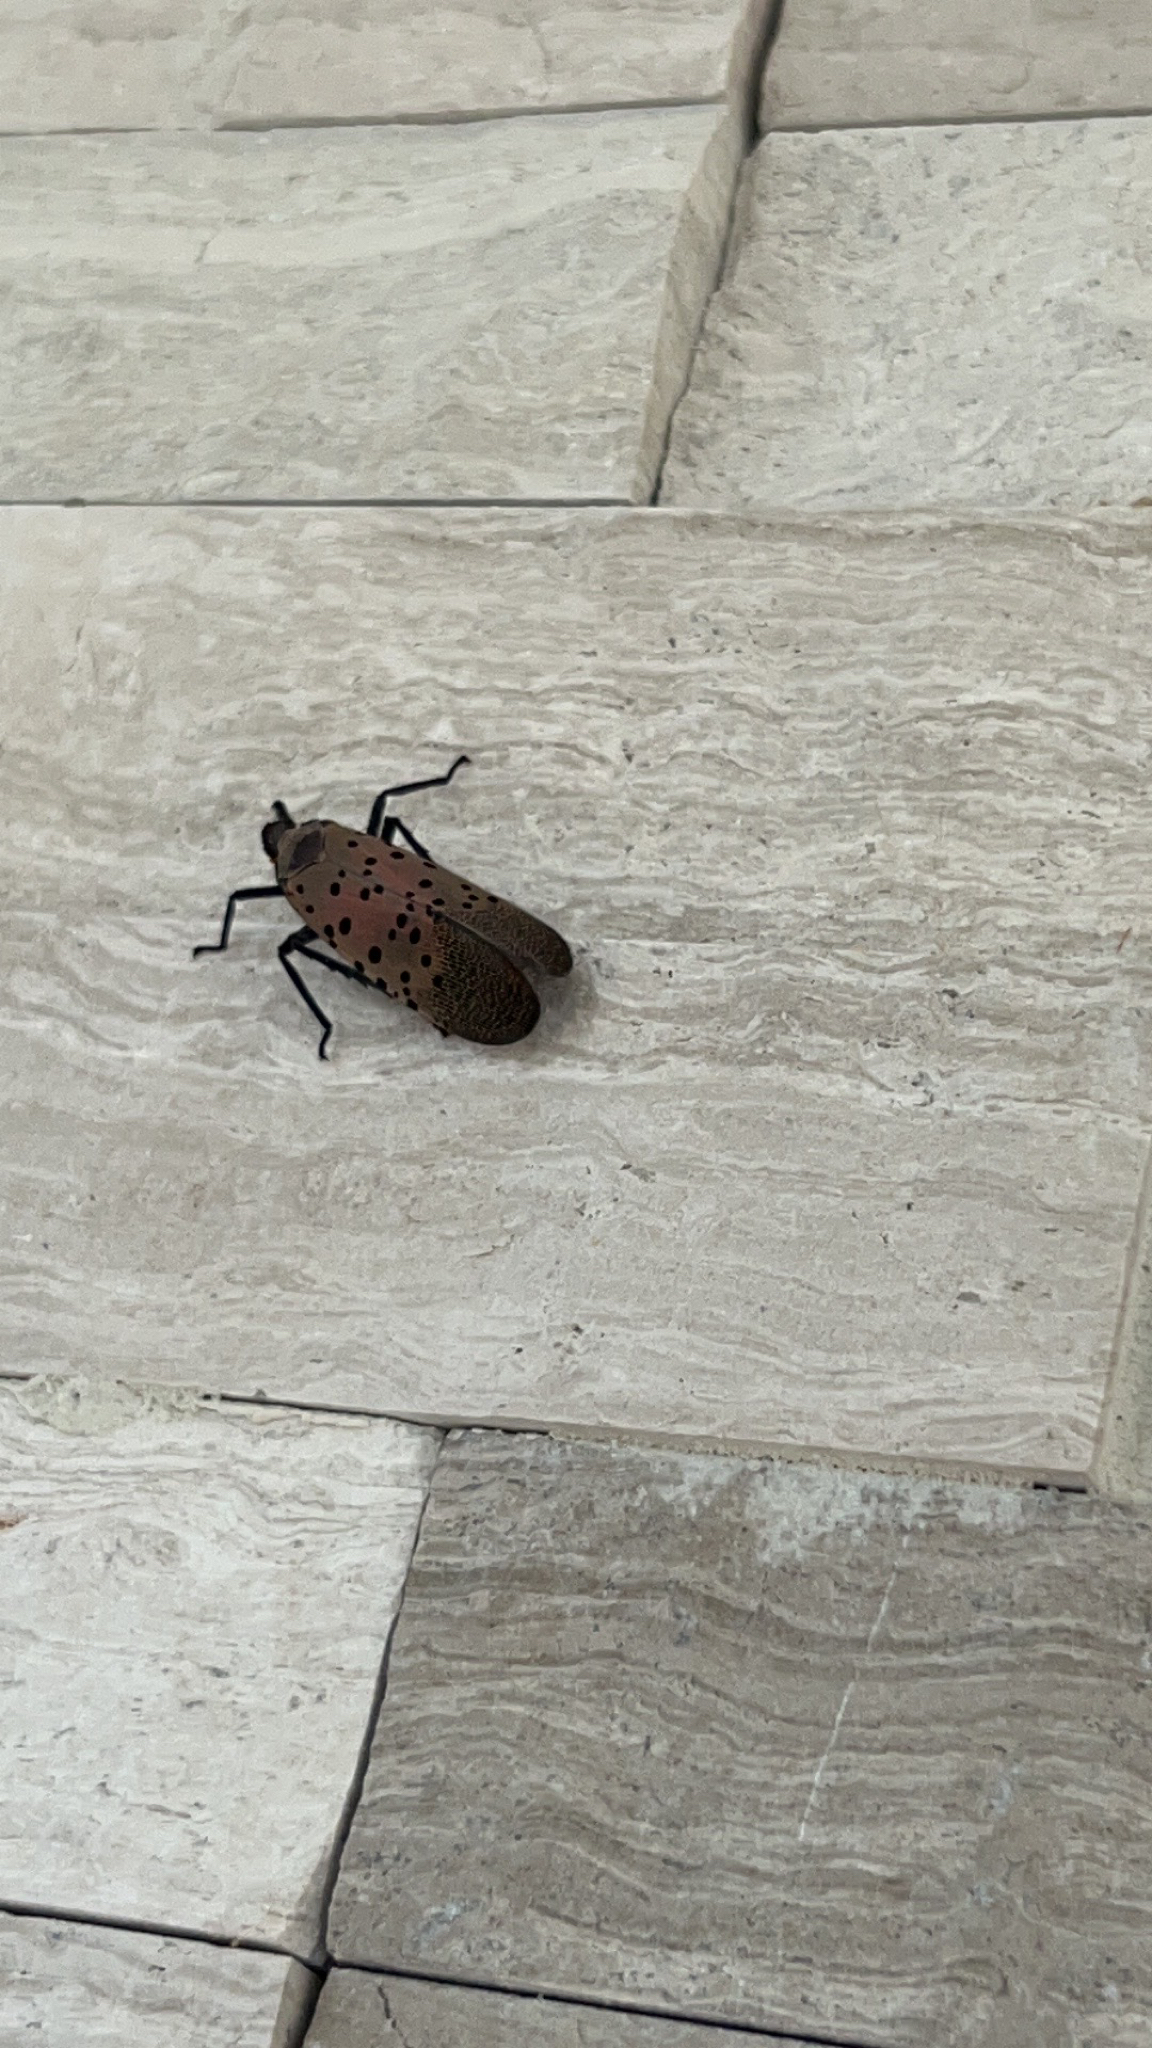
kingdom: Animalia
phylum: Arthropoda
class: Insecta
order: Hemiptera
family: Fulgoridae
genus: Lycorma
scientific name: Lycorma delicatula
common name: Spotted lanternfly
